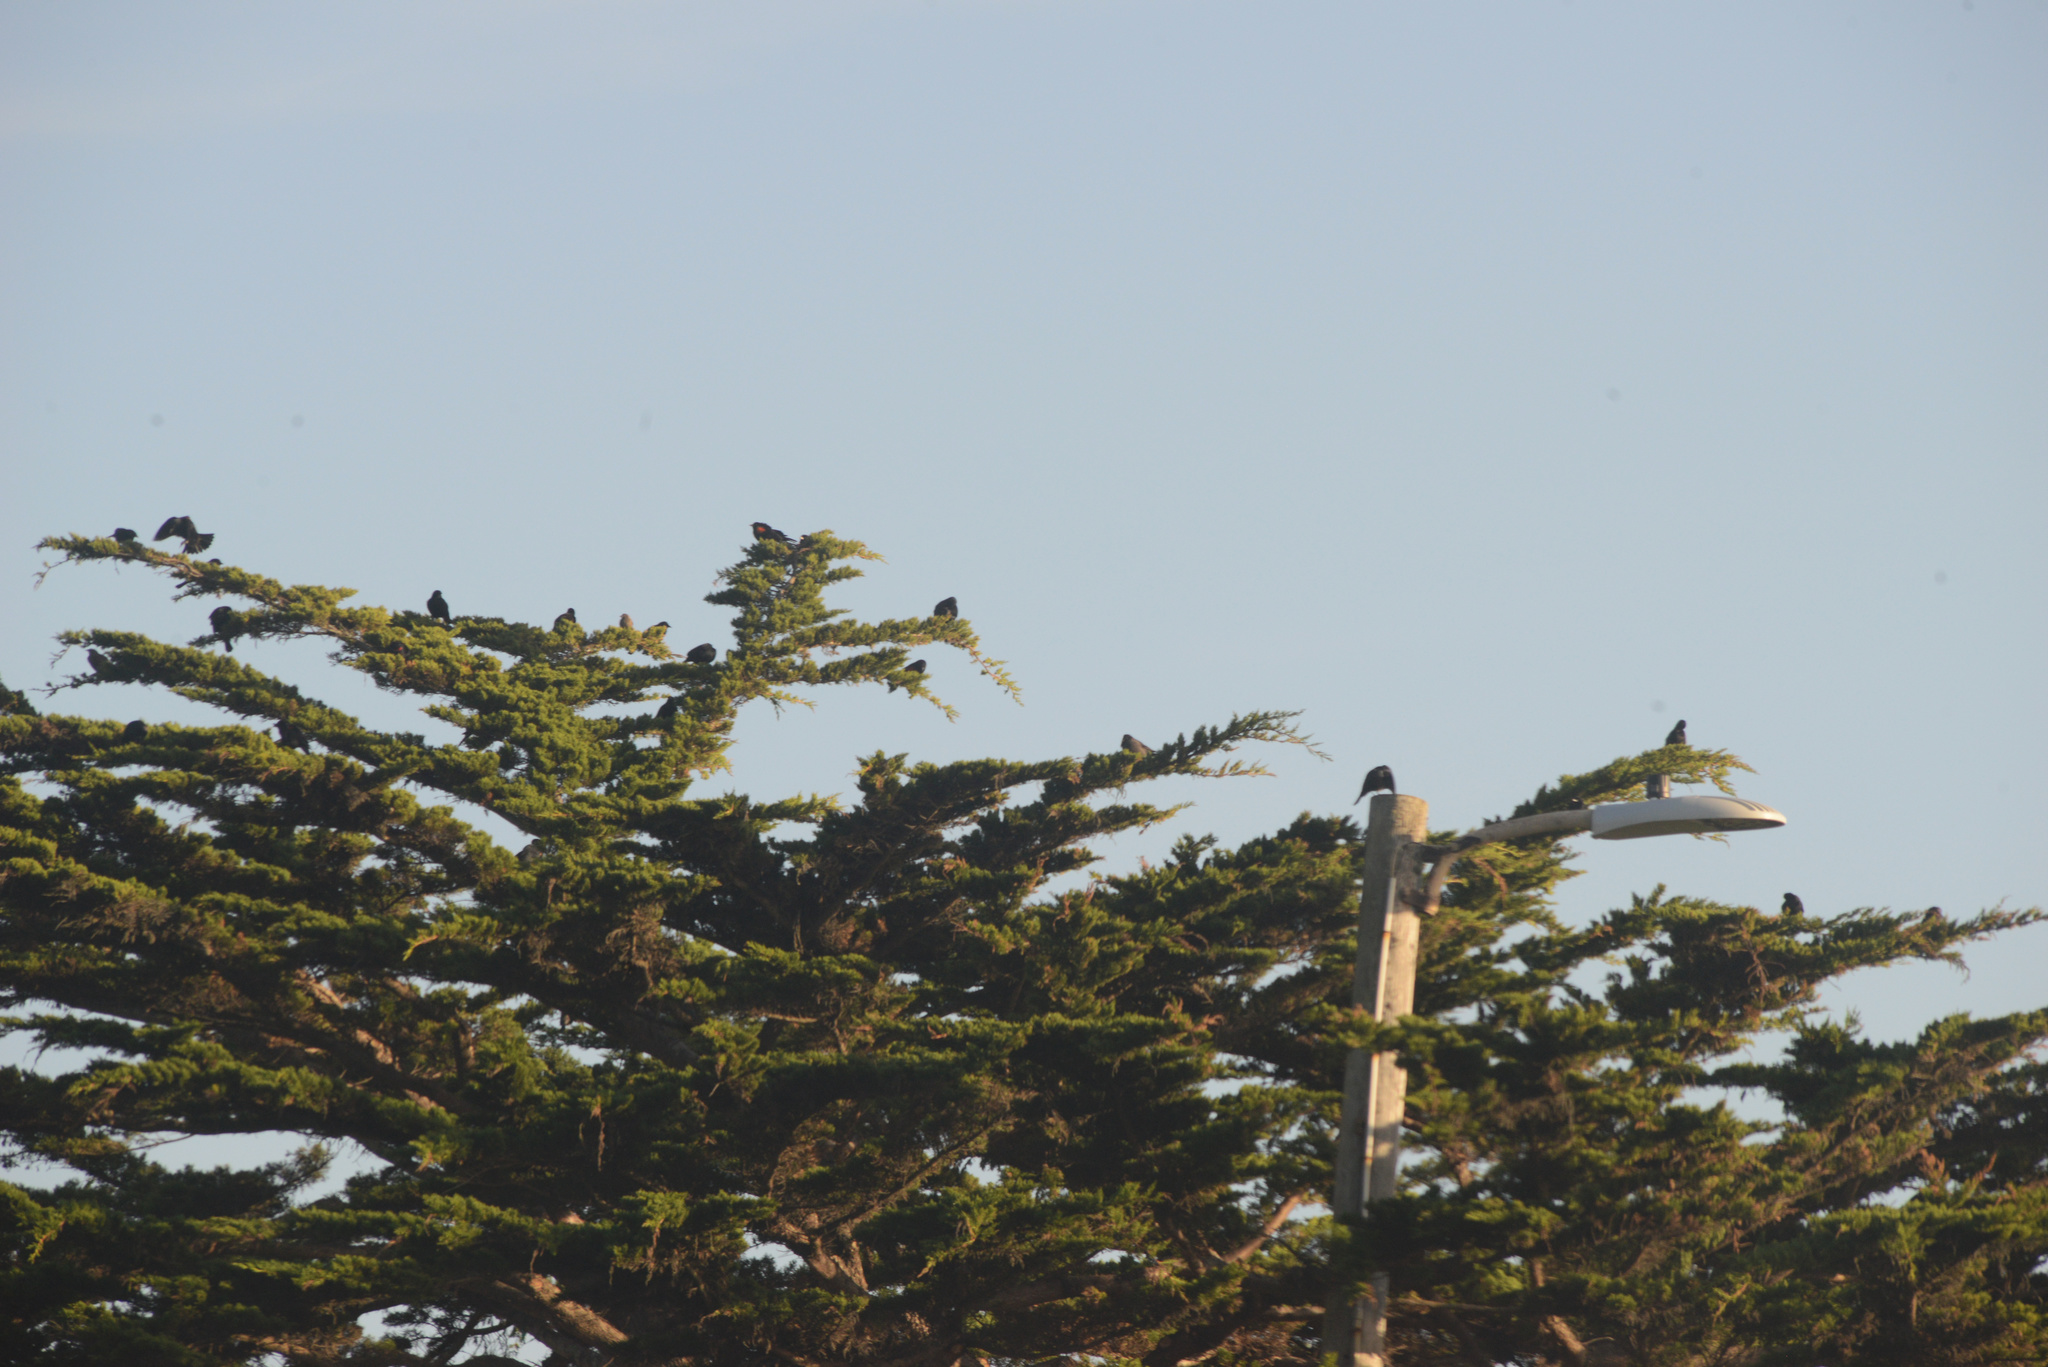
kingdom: Animalia
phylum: Chordata
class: Aves
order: Passeriformes
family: Icteridae
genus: Euphagus
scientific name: Euphagus cyanocephalus
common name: Brewer's blackbird
